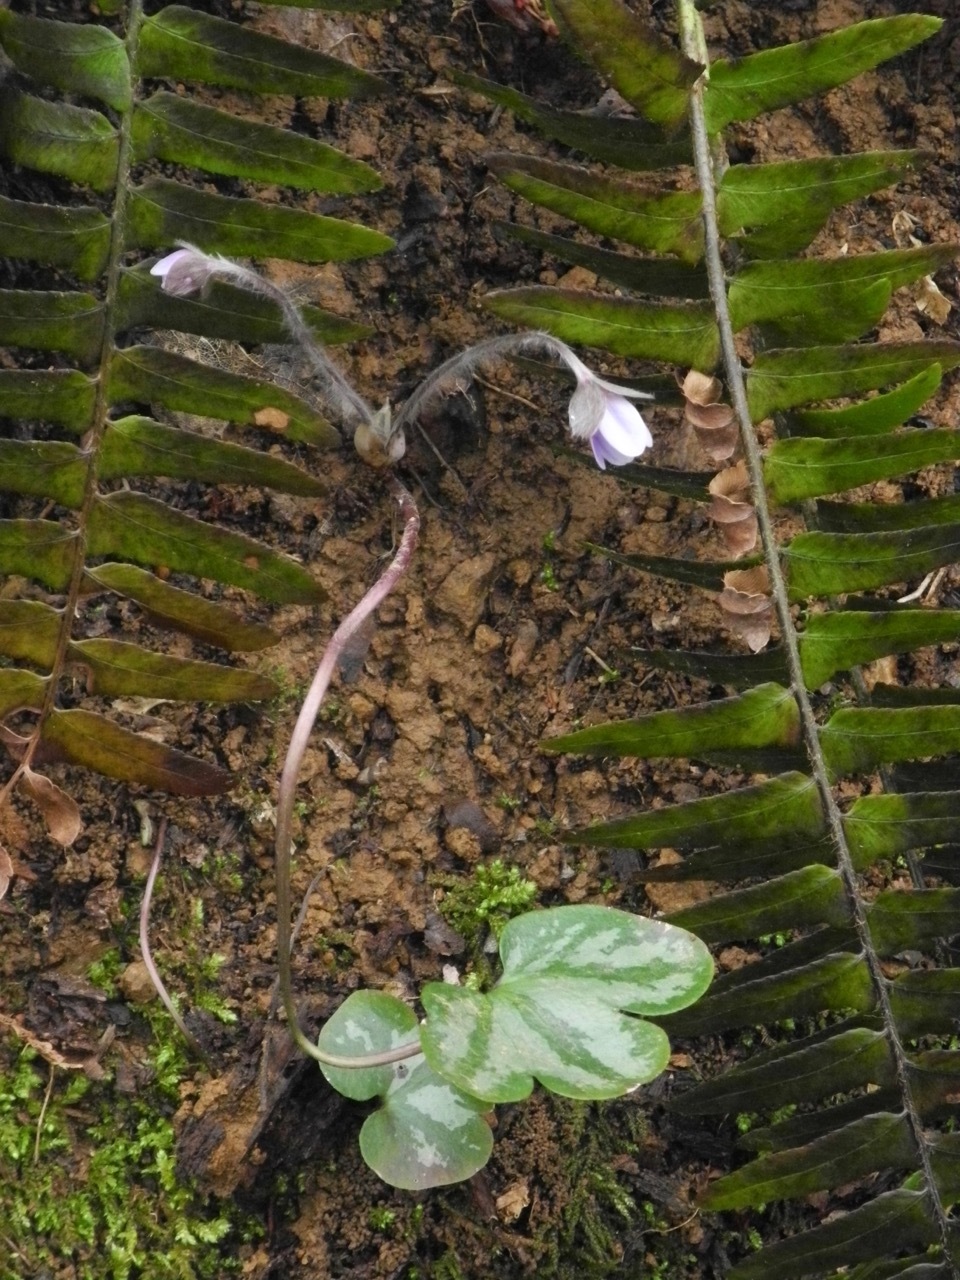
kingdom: Plantae
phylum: Tracheophyta
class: Magnoliopsida
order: Ranunculales
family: Ranunculaceae
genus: Hepatica
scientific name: Hepatica americana
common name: American hepatica
